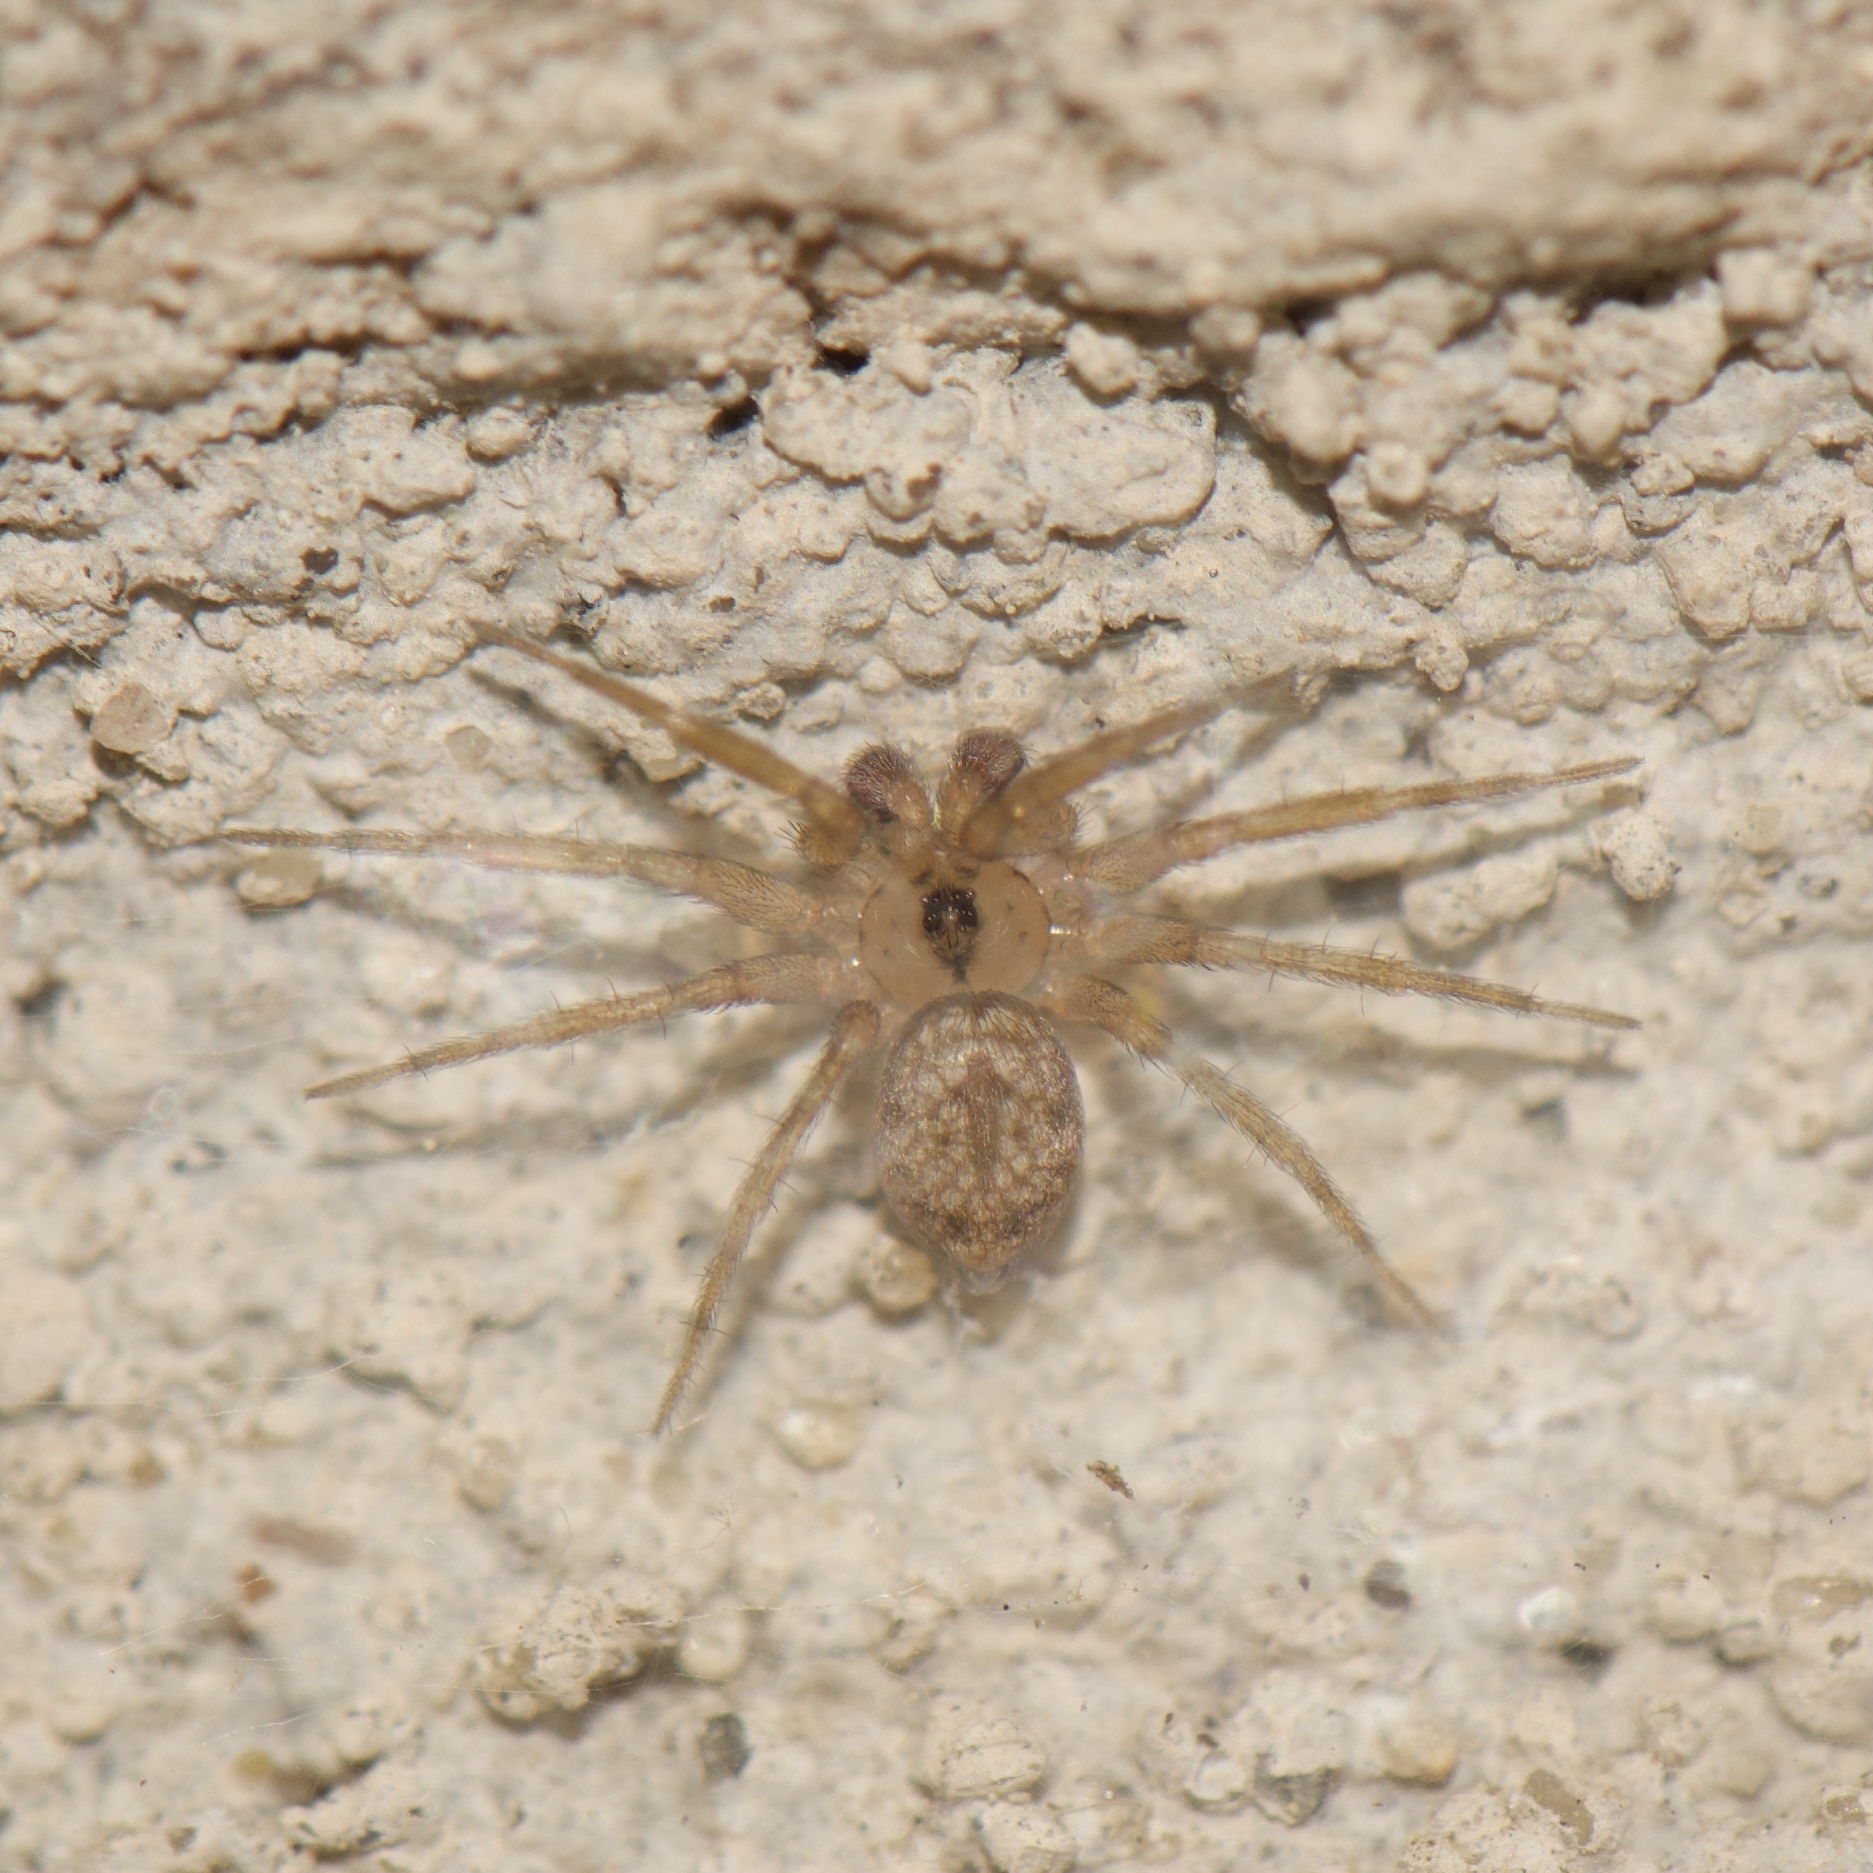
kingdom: Animalia
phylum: Arthropoda
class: Arachnida
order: Araneae
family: Oecobiidae
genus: Oecobius
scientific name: Oecobius navus
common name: Flatmesh weaver
